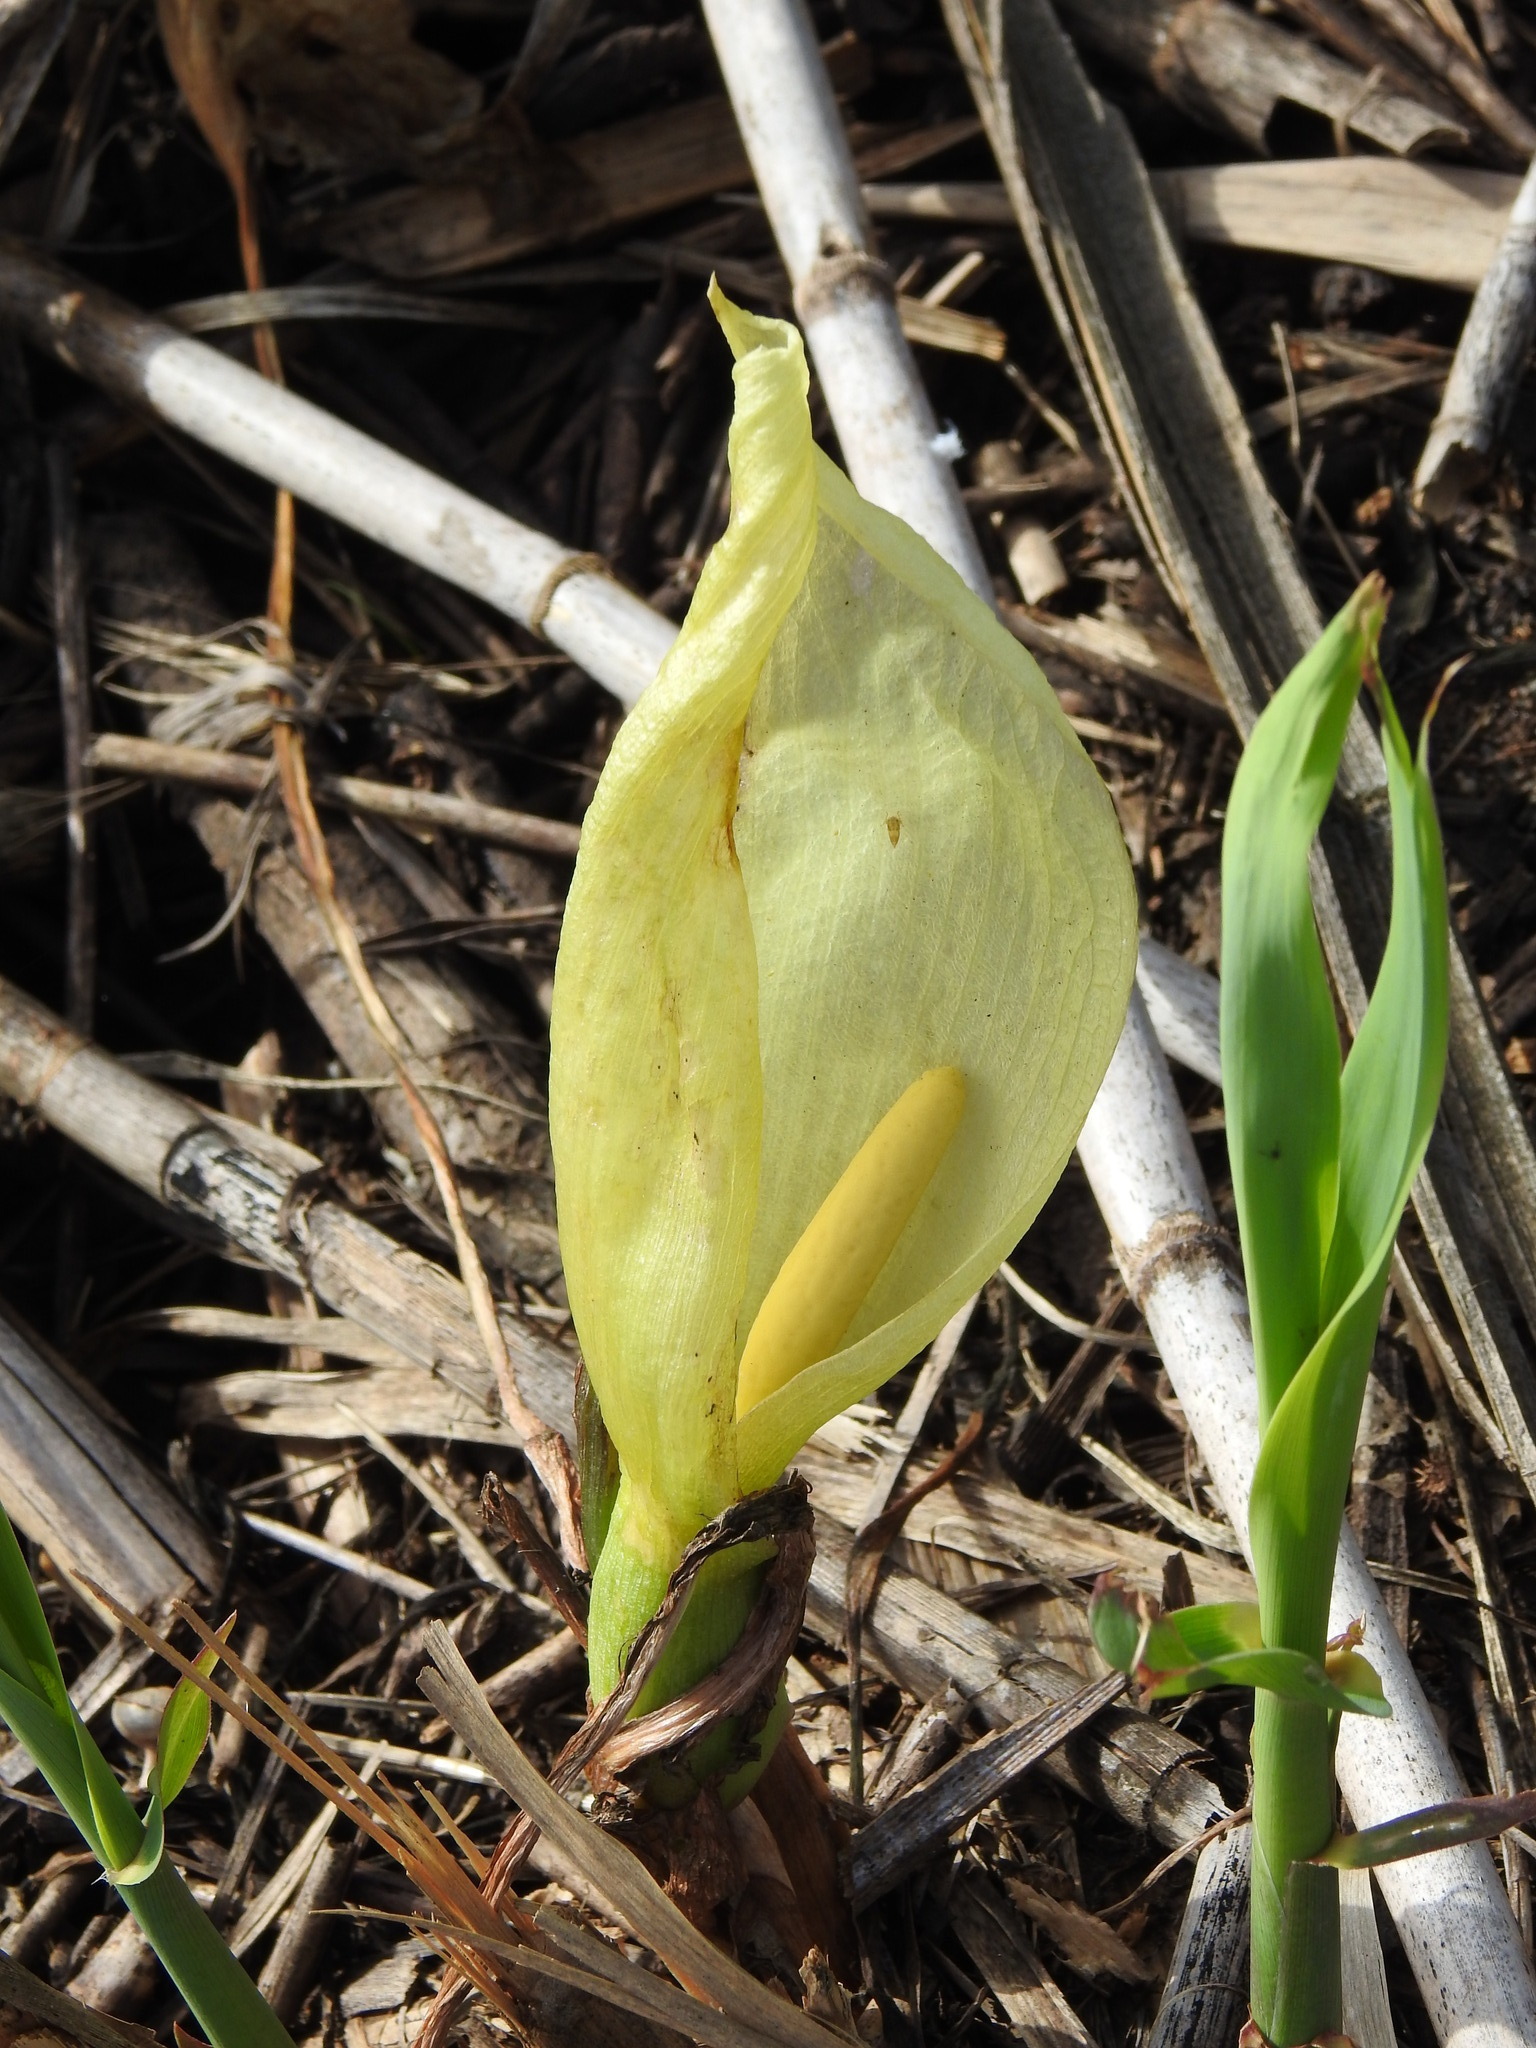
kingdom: Plantae
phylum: Tracheophyta
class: Liliopsida
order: Alismatales
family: Araceae
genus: Arum
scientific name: Arum italicum
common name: Italian lords-and-ladies
